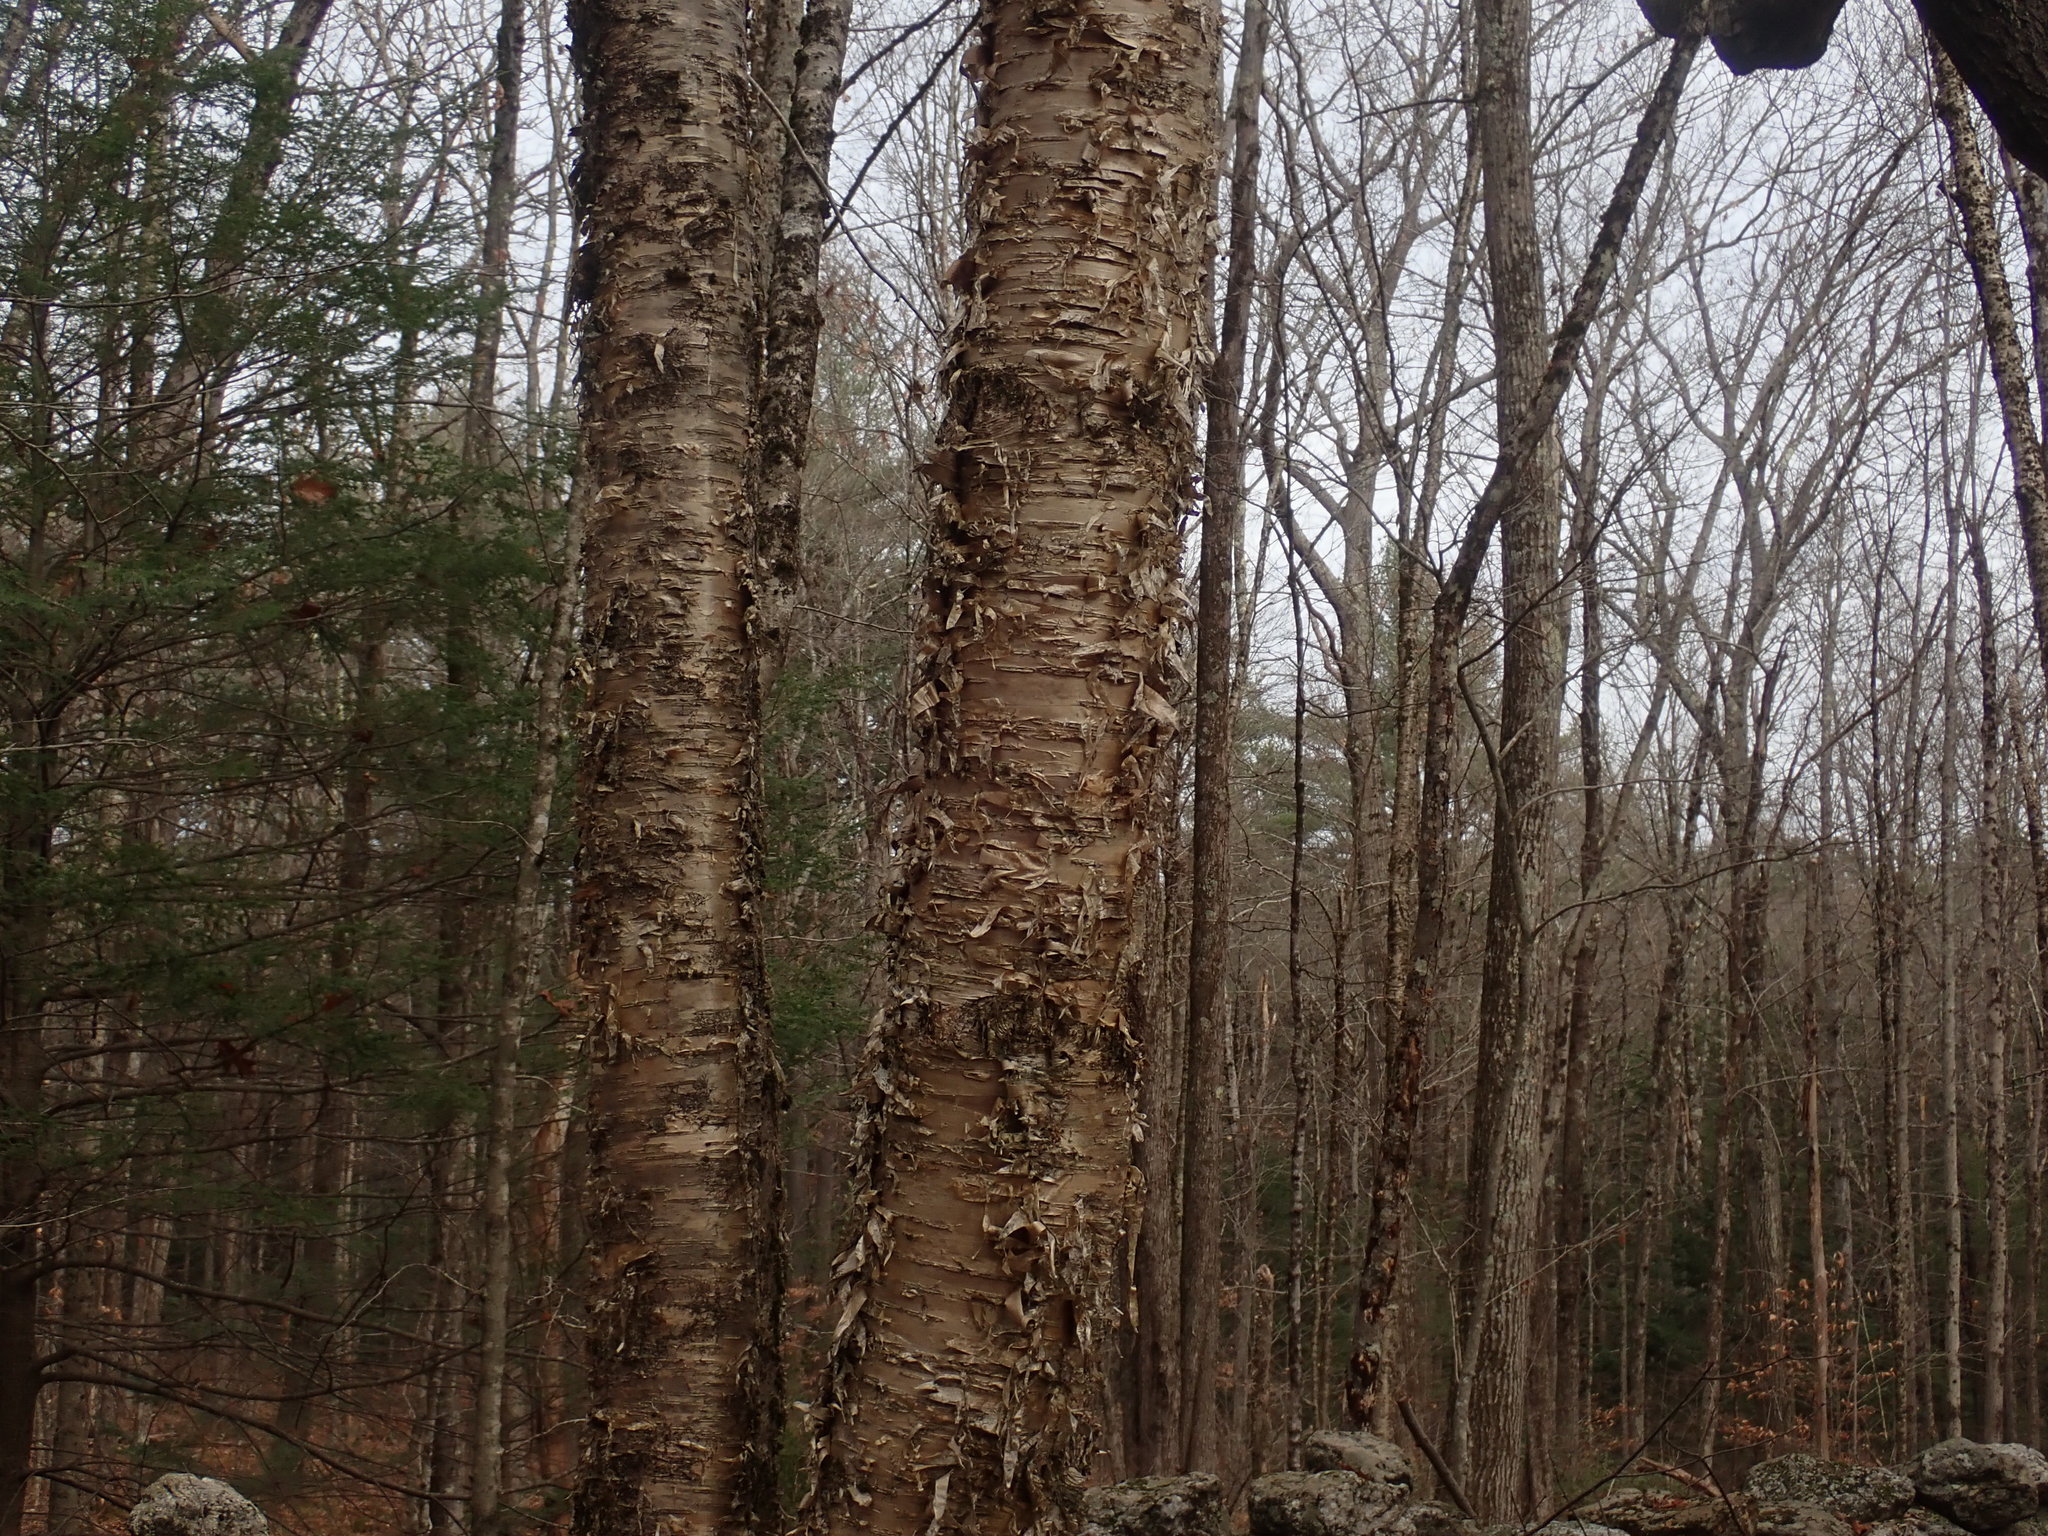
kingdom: Plantae
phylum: Tracheophyta
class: Magnoliopsida
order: Fagales
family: Betulaceae
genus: Betula
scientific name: Betula alleghaniensis
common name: Yellow birch
